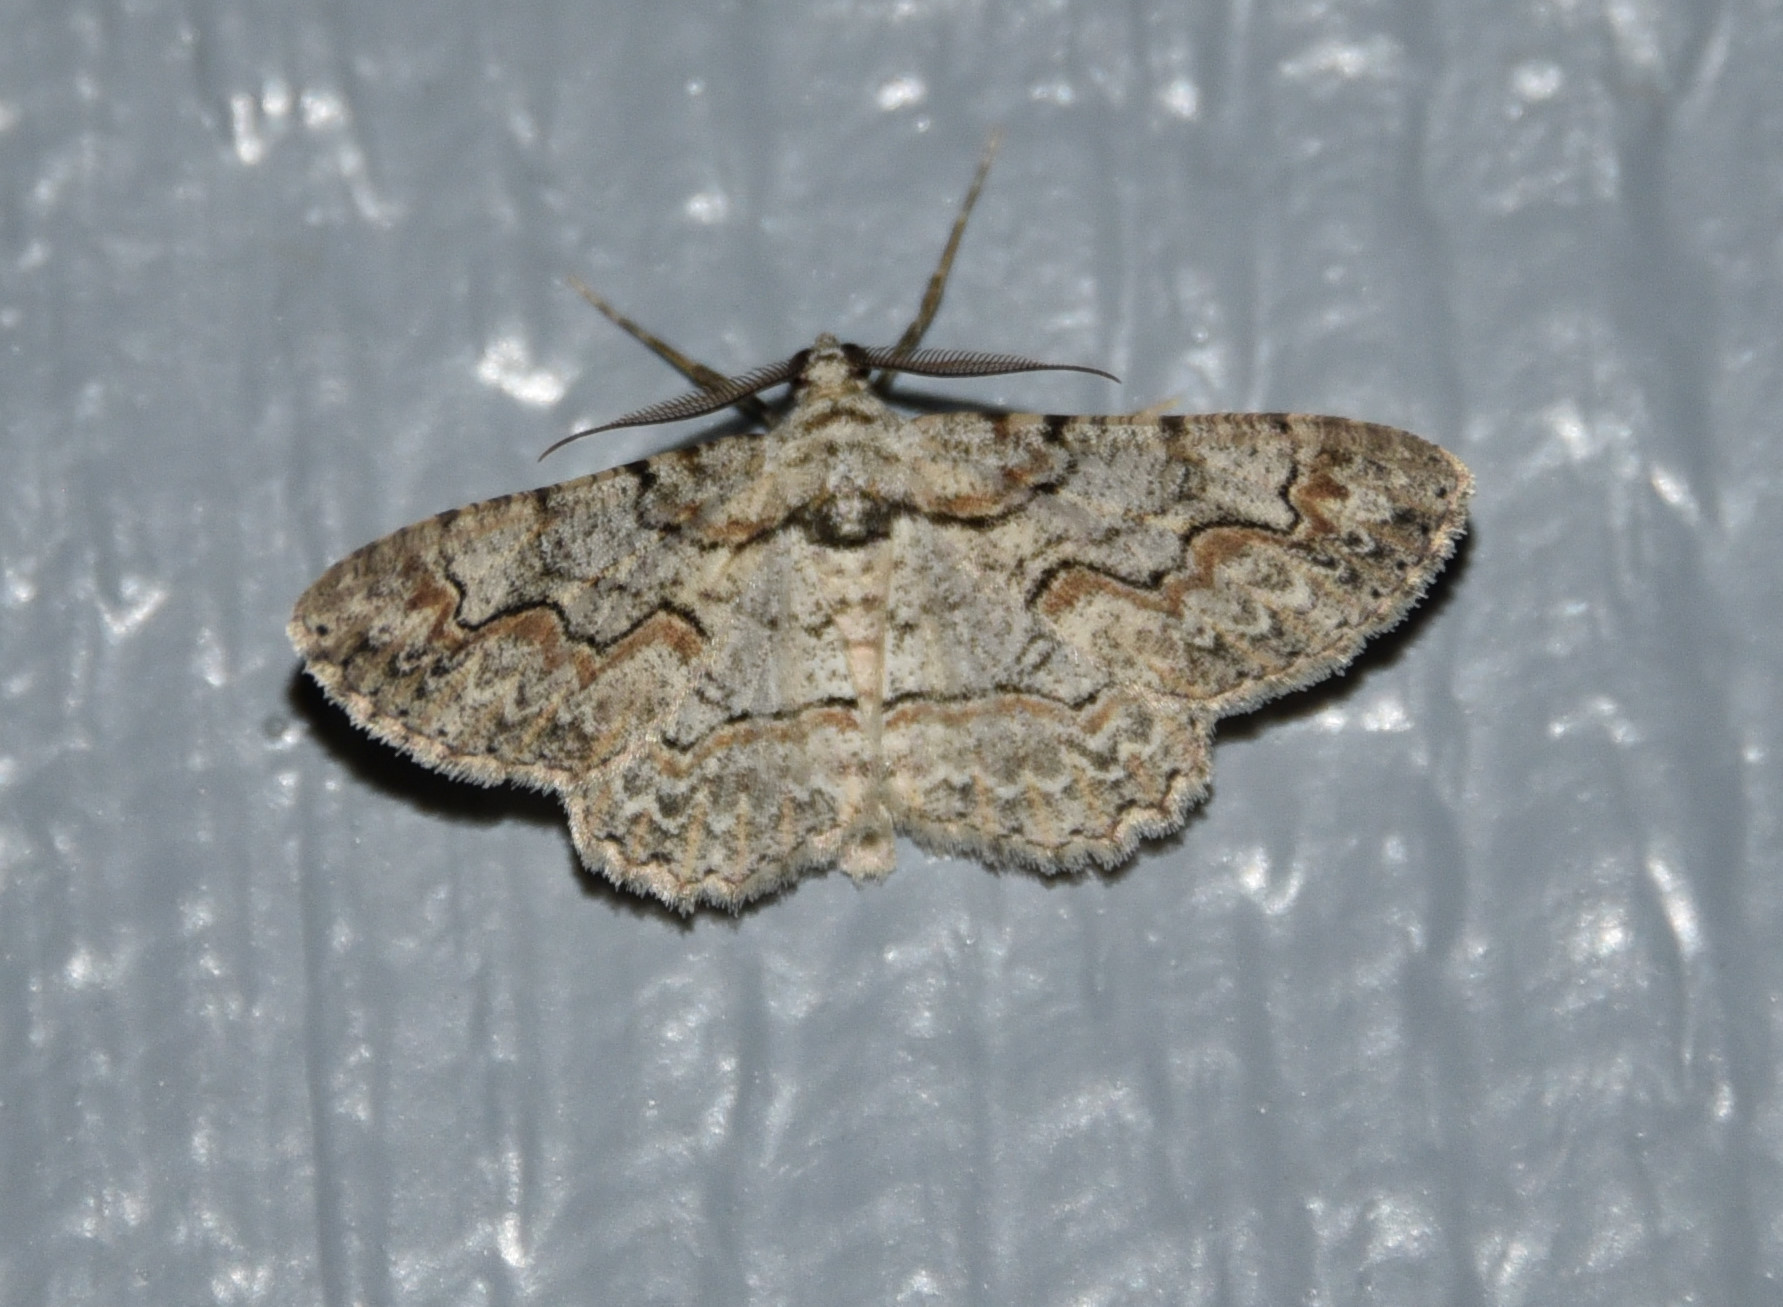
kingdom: Animalia
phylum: Arthropoda
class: Insecta
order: Lepidoptera
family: Geometridae
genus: Iridopsis
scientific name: Iridopsis defectaria
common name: Brown-shaded gray
